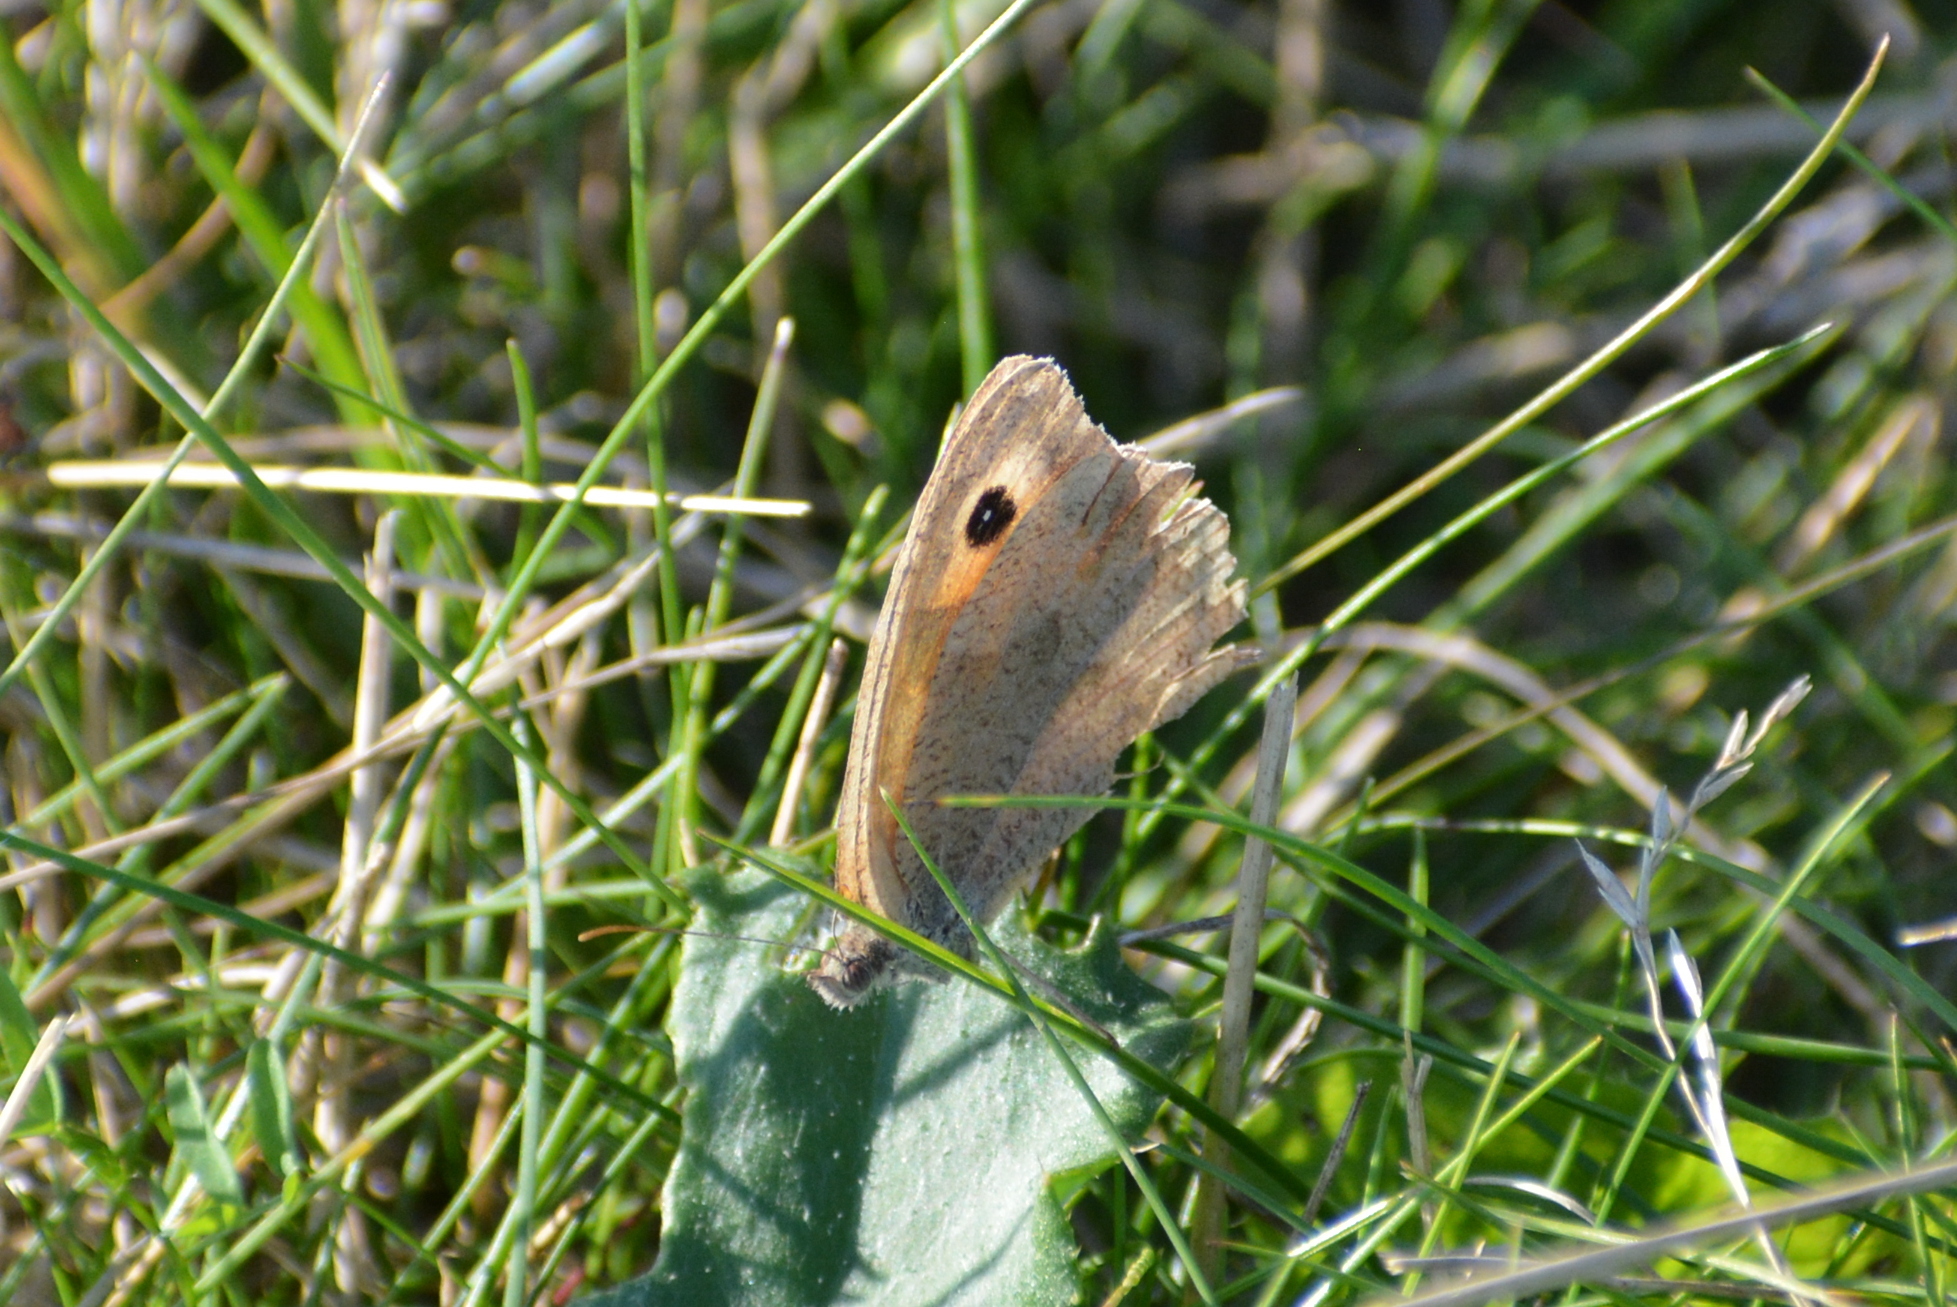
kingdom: Animalia
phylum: Arthropoda
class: Insecta
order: Lepidoptera
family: Nymphalidae
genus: Maniola
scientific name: Maniola jurtina
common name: Meadow brown
